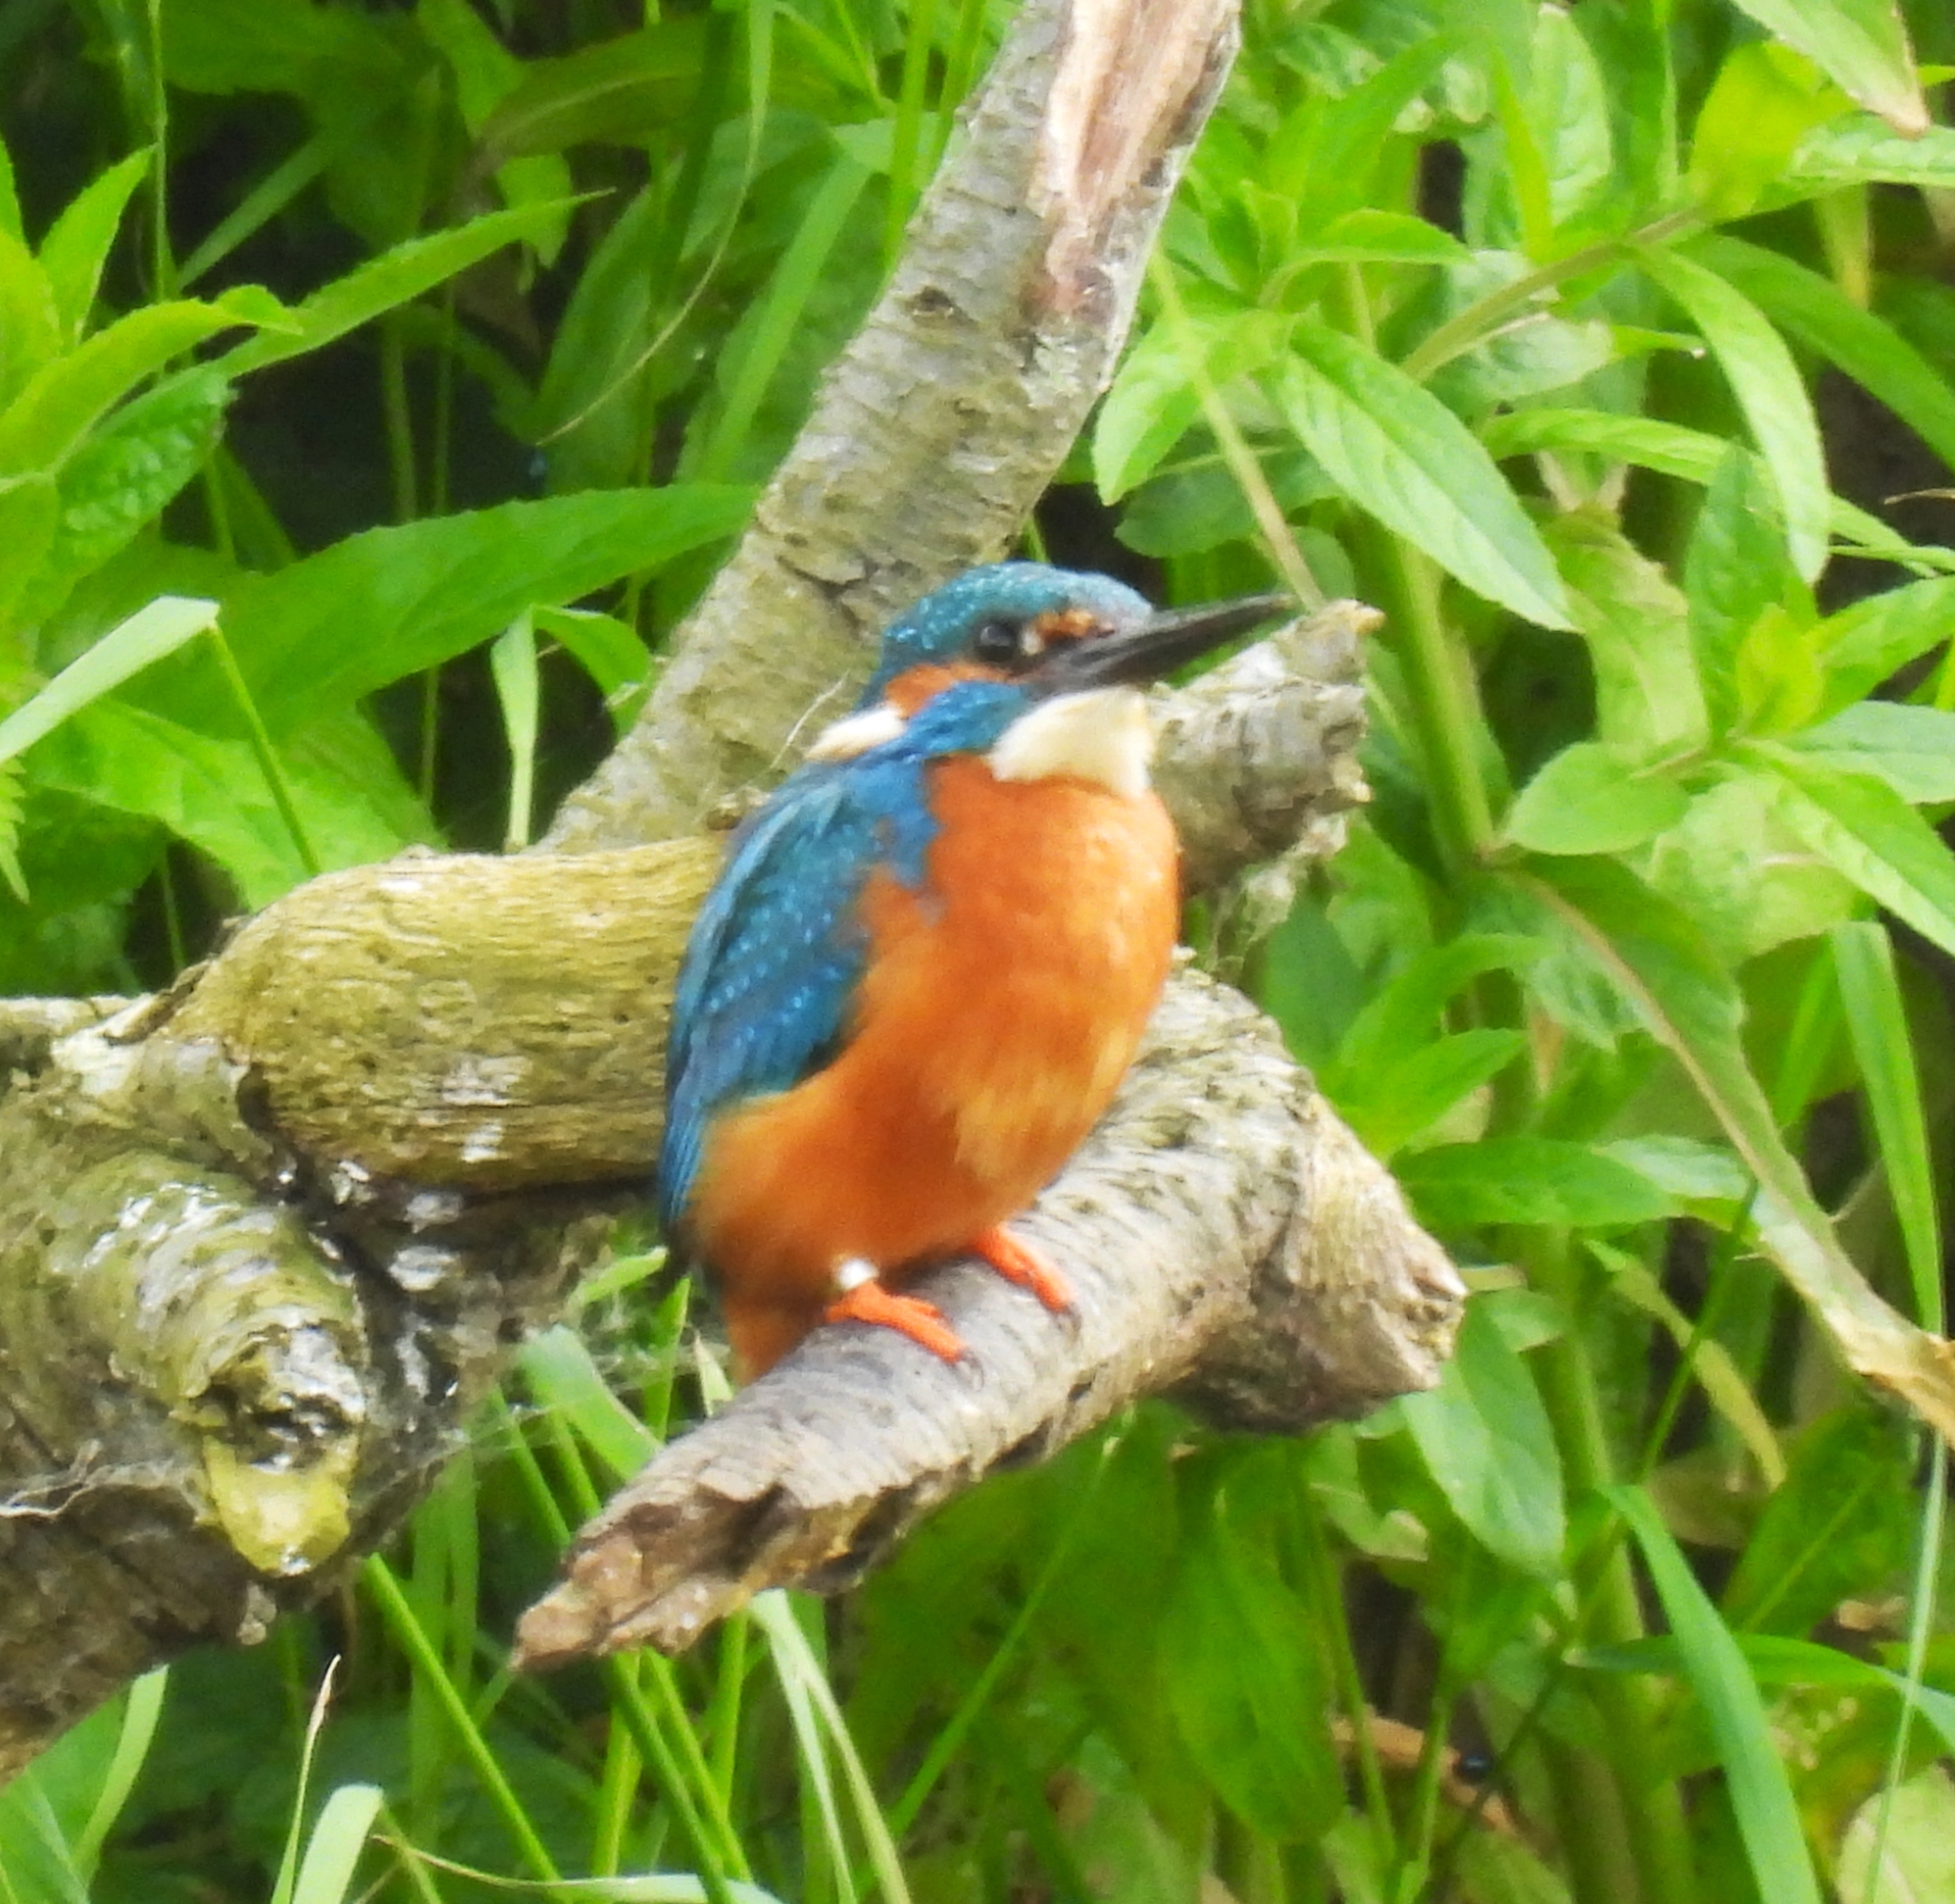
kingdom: Animalia
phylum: Chordata
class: Aves
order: Coraciiformes
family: Alcedinidae
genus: Alcedo
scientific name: Alcedo atthis
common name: Common kingfisher
